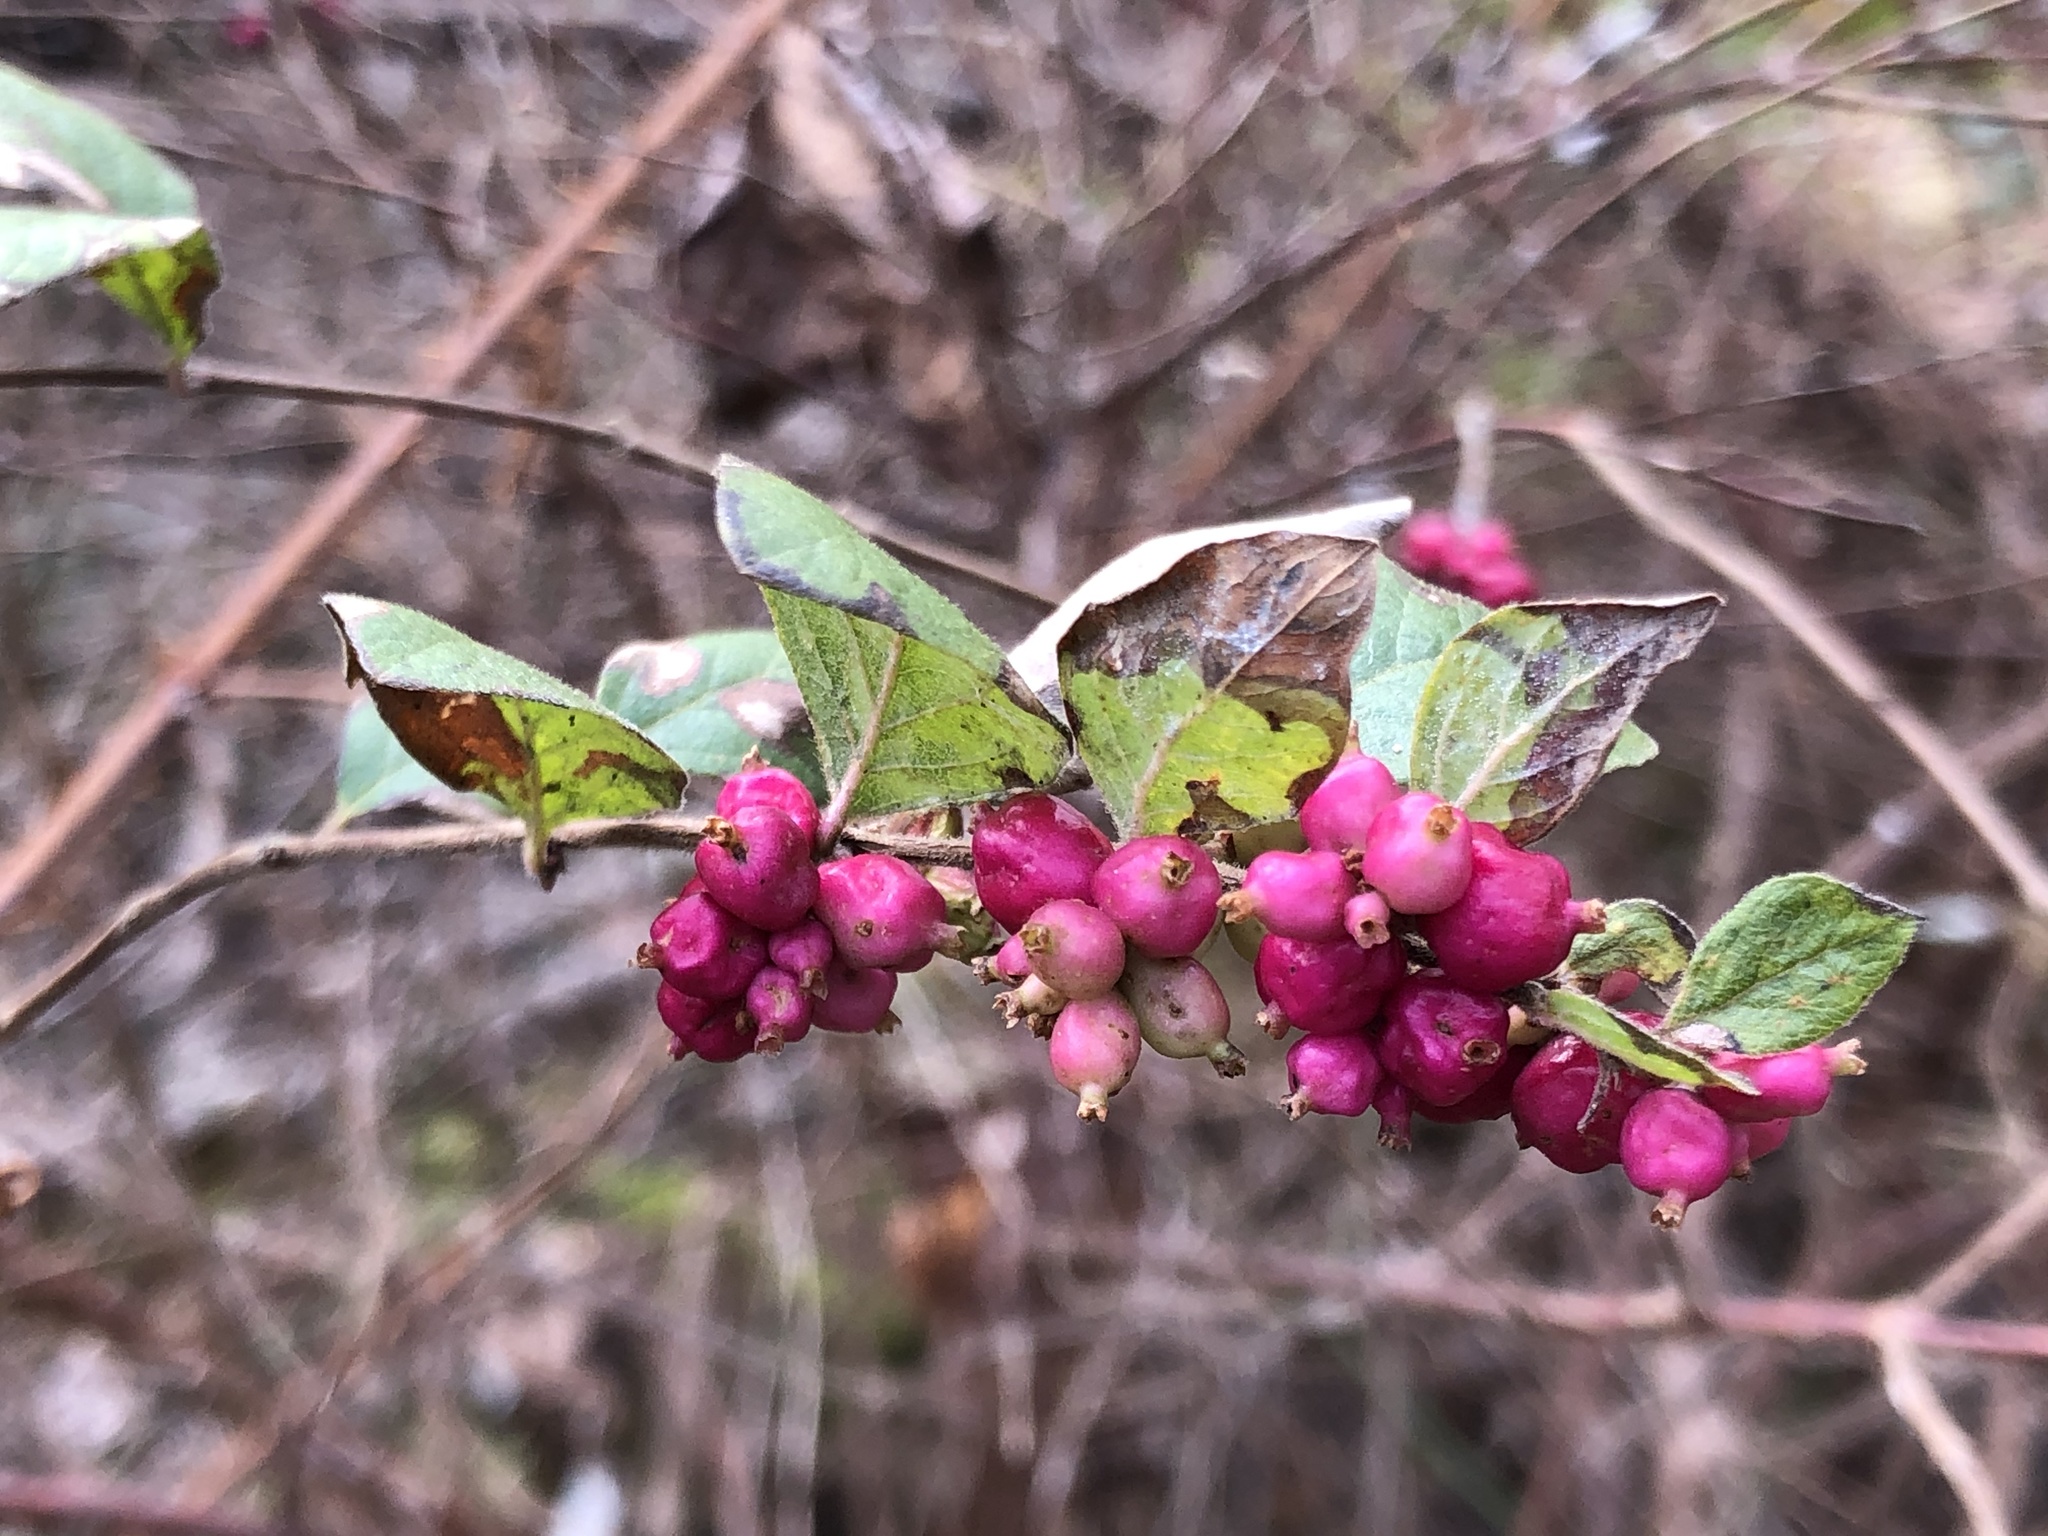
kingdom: Plantae
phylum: Tracheophyta
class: Magnoliopsida
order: Dipsacales
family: Caprifoliaceae
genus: Symphoricarpos
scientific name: Symphoricarpos orbiculatus
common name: Coralberry
